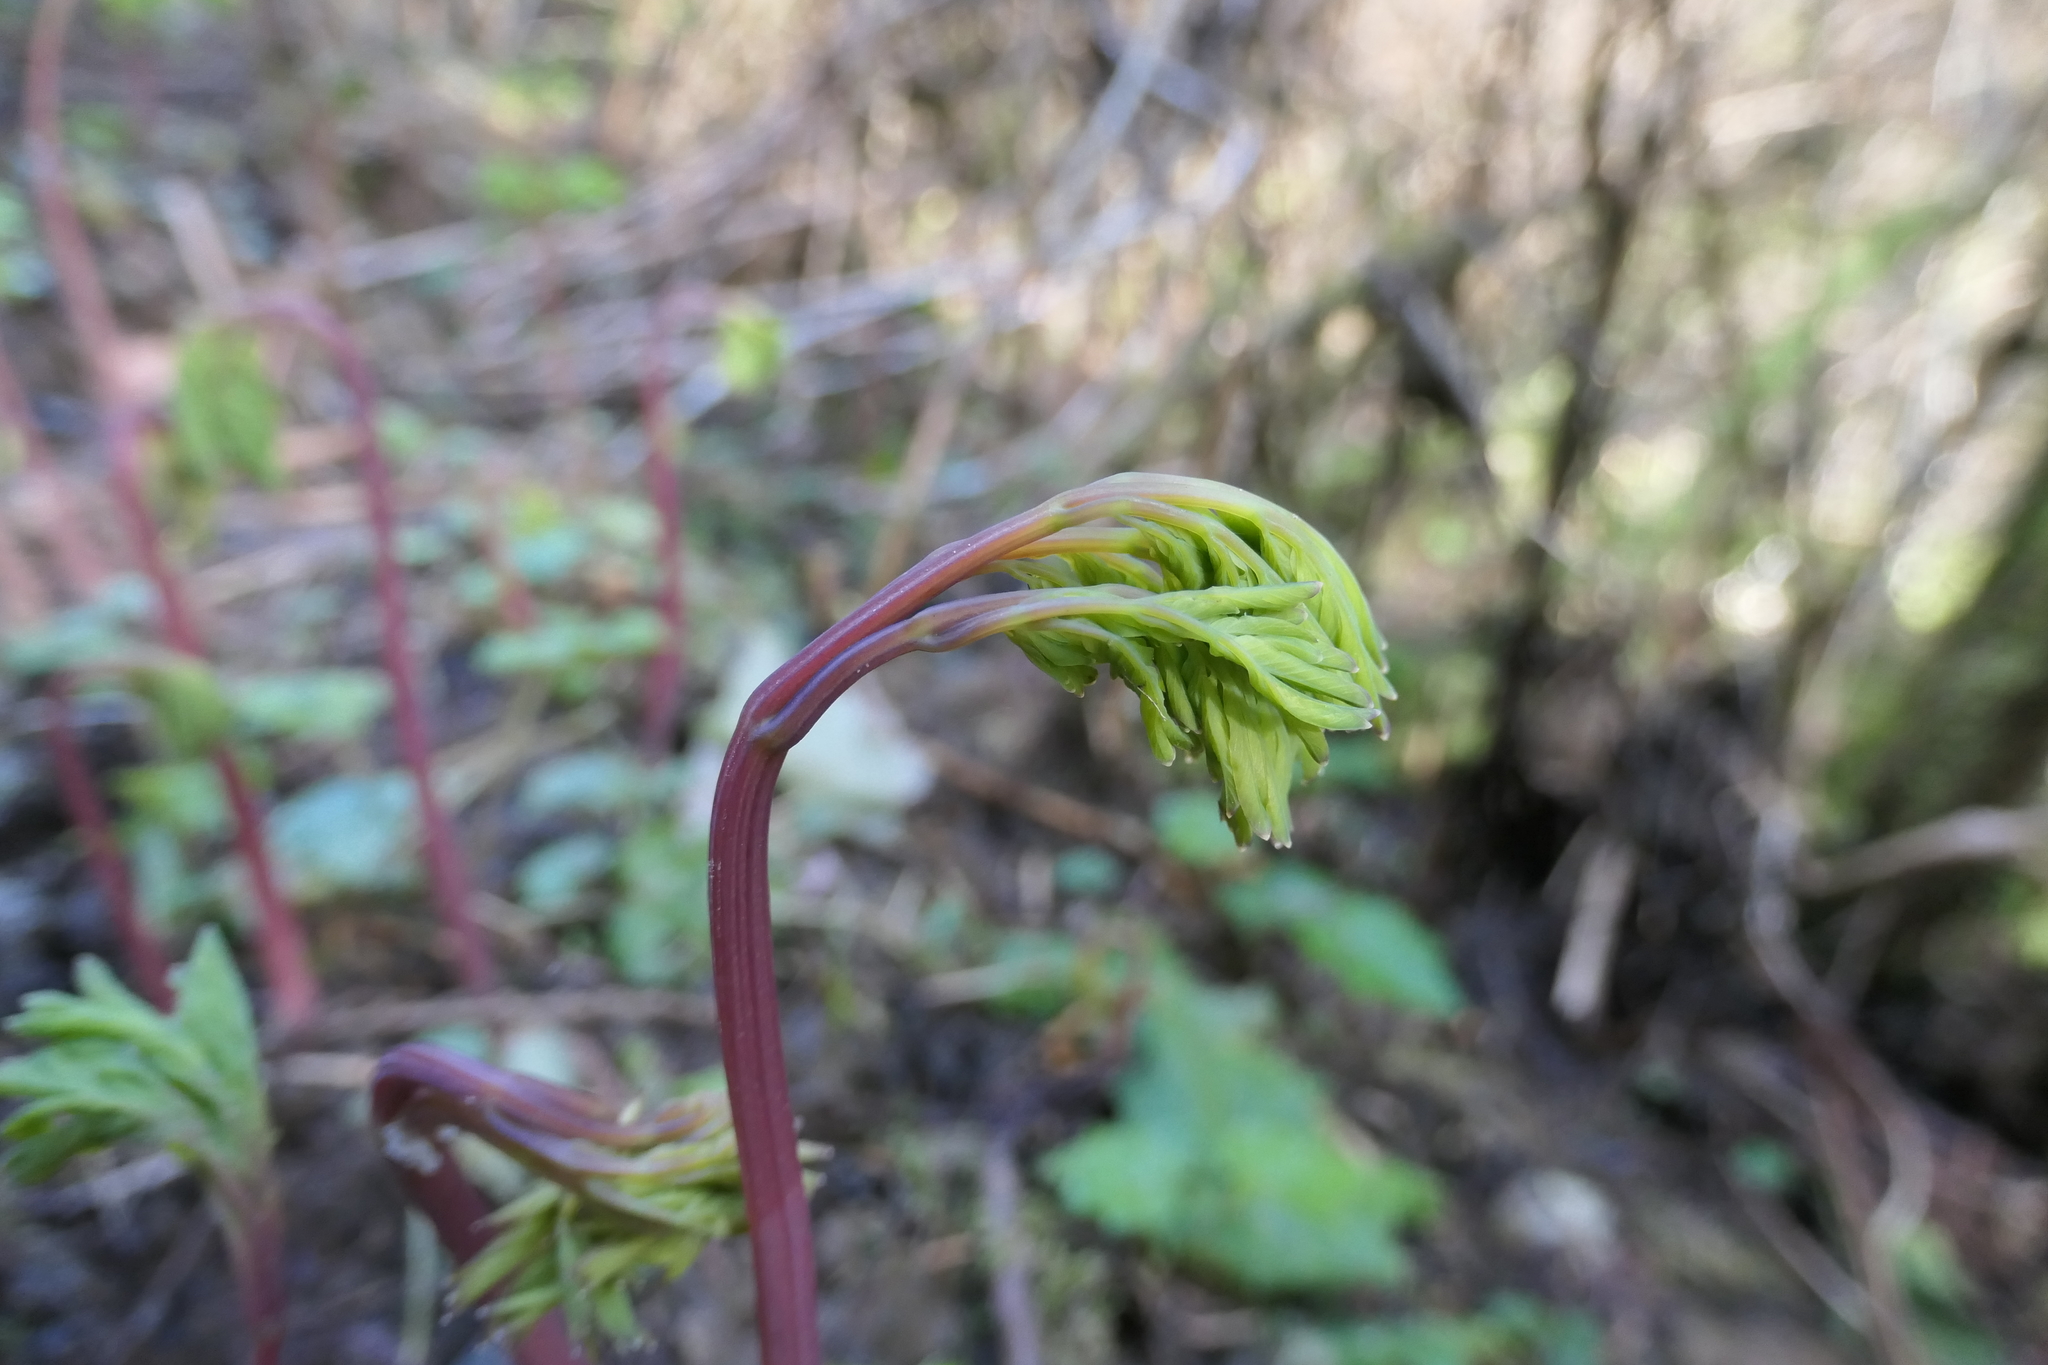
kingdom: Plantae
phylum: Tracheophyta
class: Magnoliopsida
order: Ranunculales
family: Papaveraceae
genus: Dicentra
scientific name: Dicentra formosa
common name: Bleeding-heart
